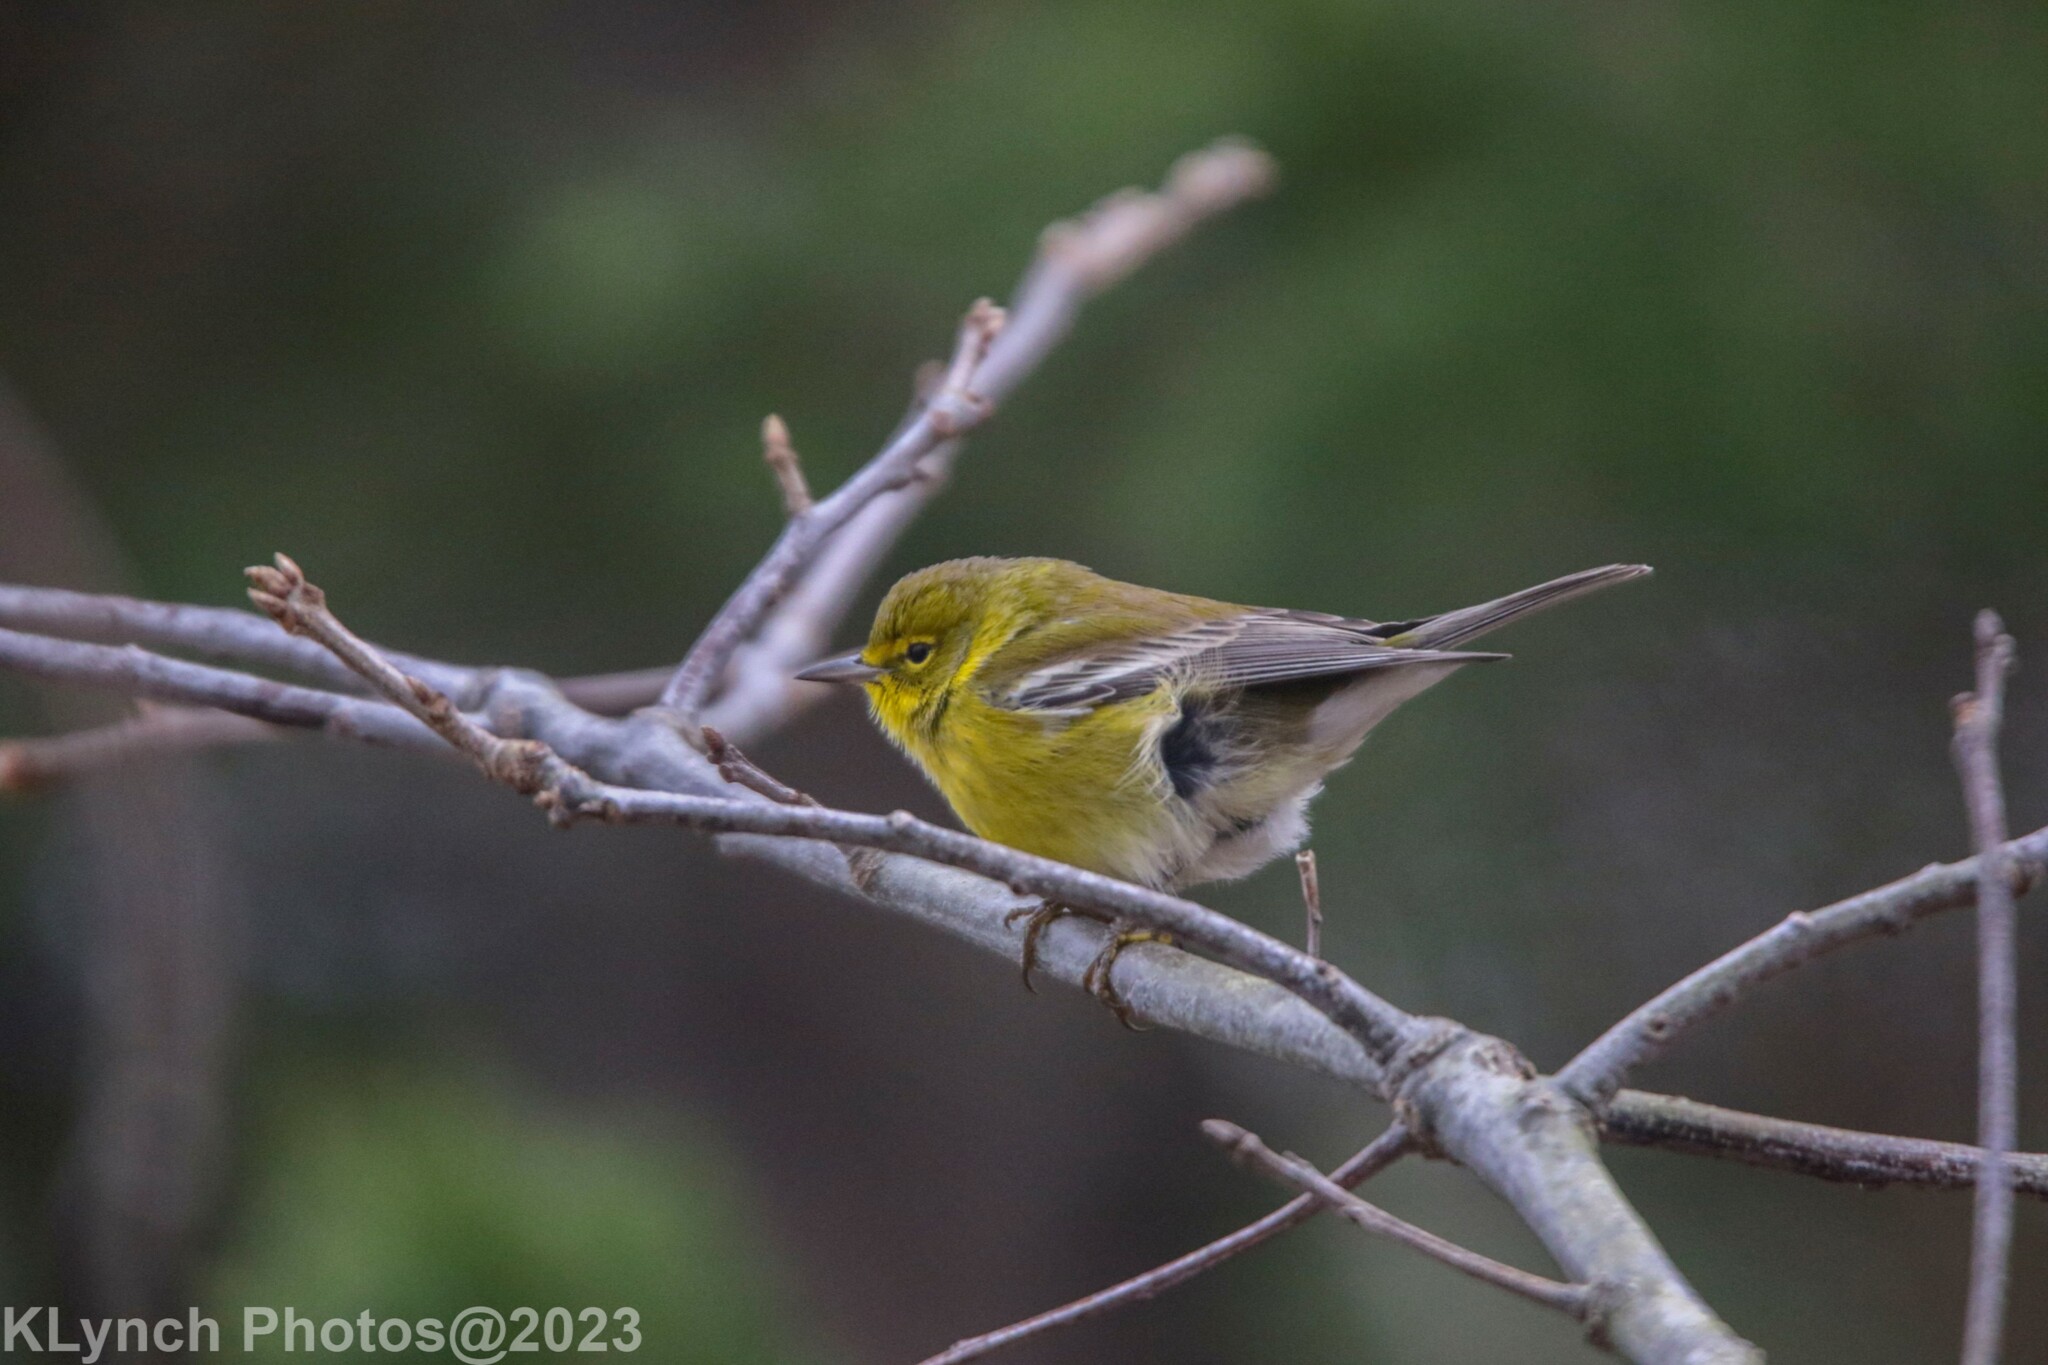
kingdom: Animalia
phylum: Chordata
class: Aves
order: Passeriformes
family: Parulidae
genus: Setophaga
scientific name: Setophaga pinus
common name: Pine warbler
